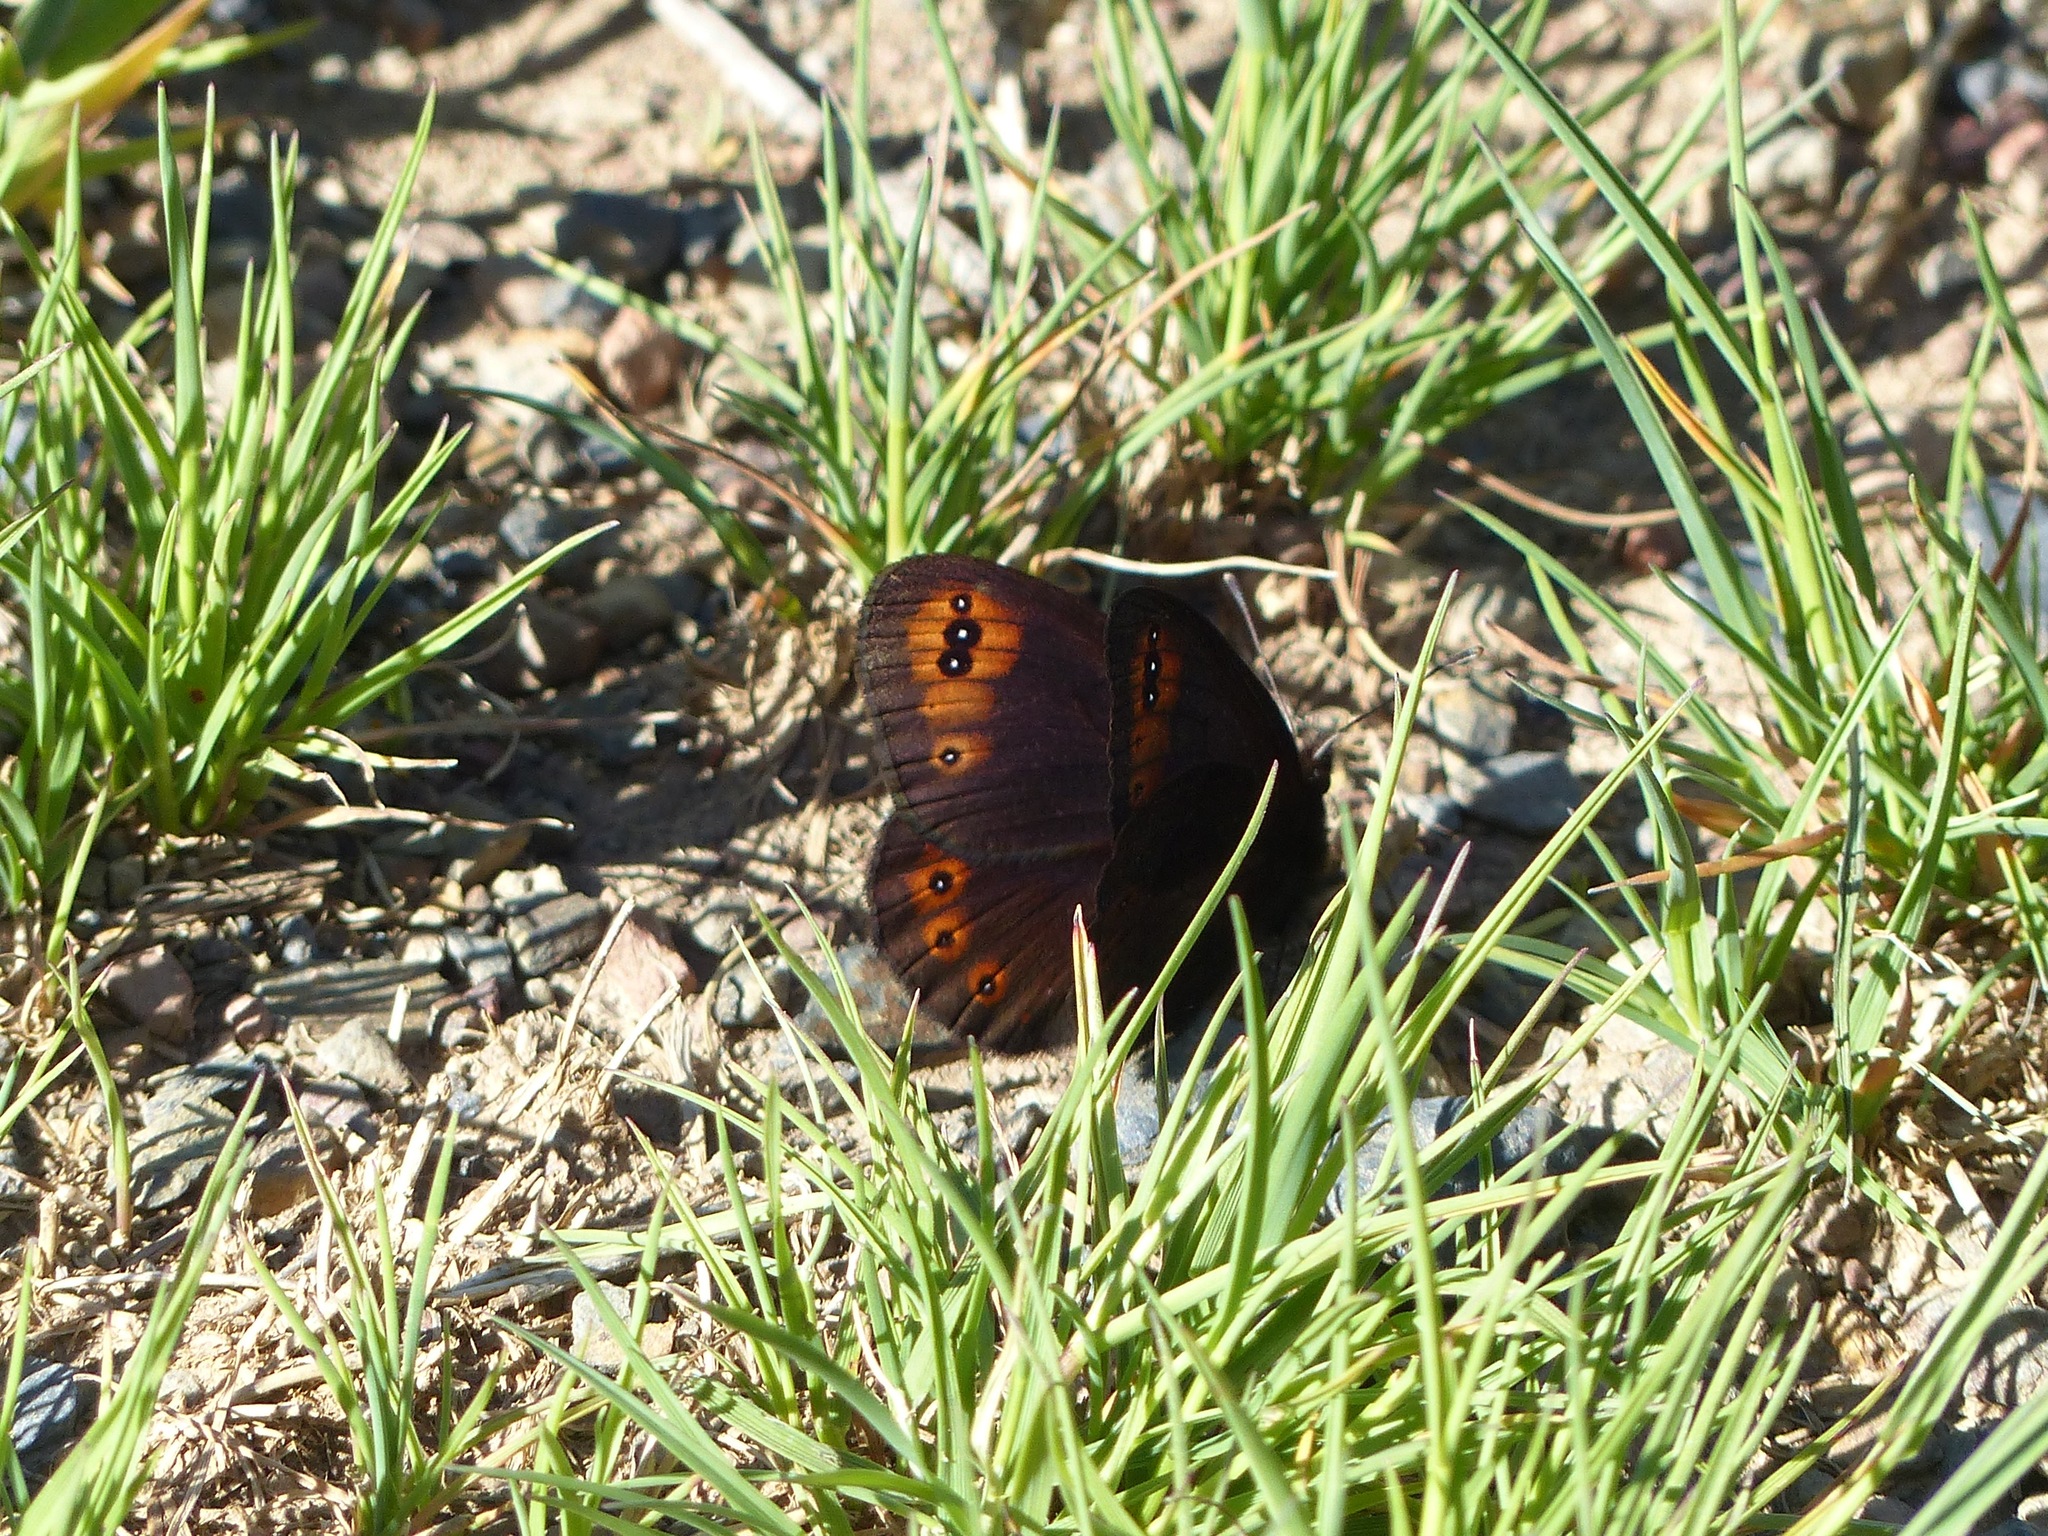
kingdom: Animalia
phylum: Arthropoda
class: Insecta
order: Lepidoptera
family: Nymphalidae
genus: Erebia
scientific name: Erebia triarius
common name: De prunner’s ringlet
